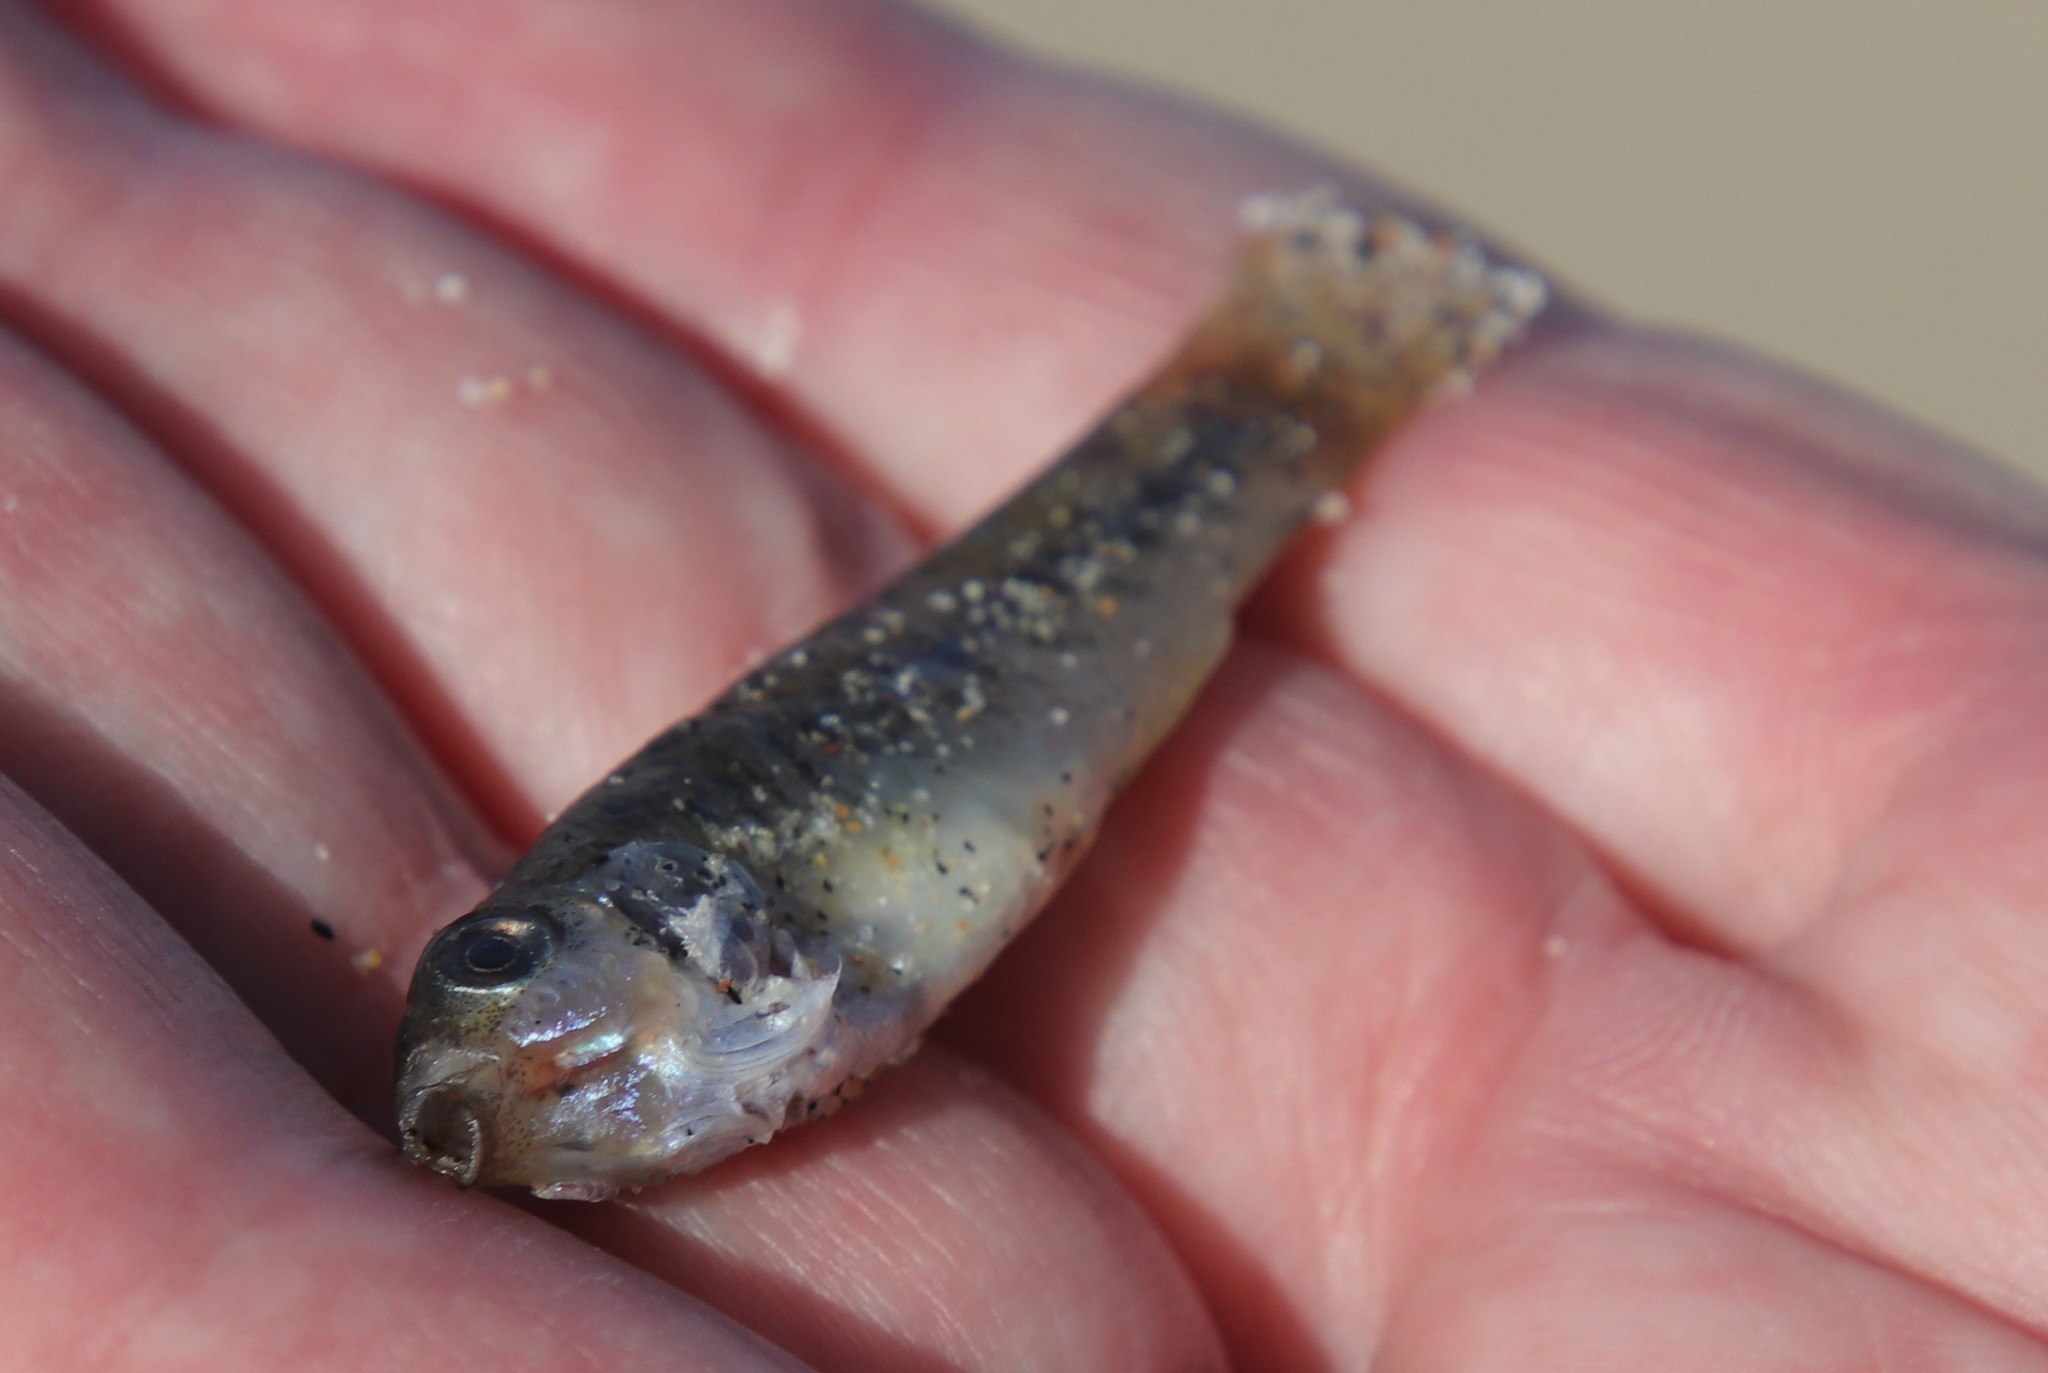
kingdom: Animalia
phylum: Chordata
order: Cyprinodontiformes
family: Fundulidae
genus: Fundulus
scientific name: Fundulus parvipinnis
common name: California killifish
